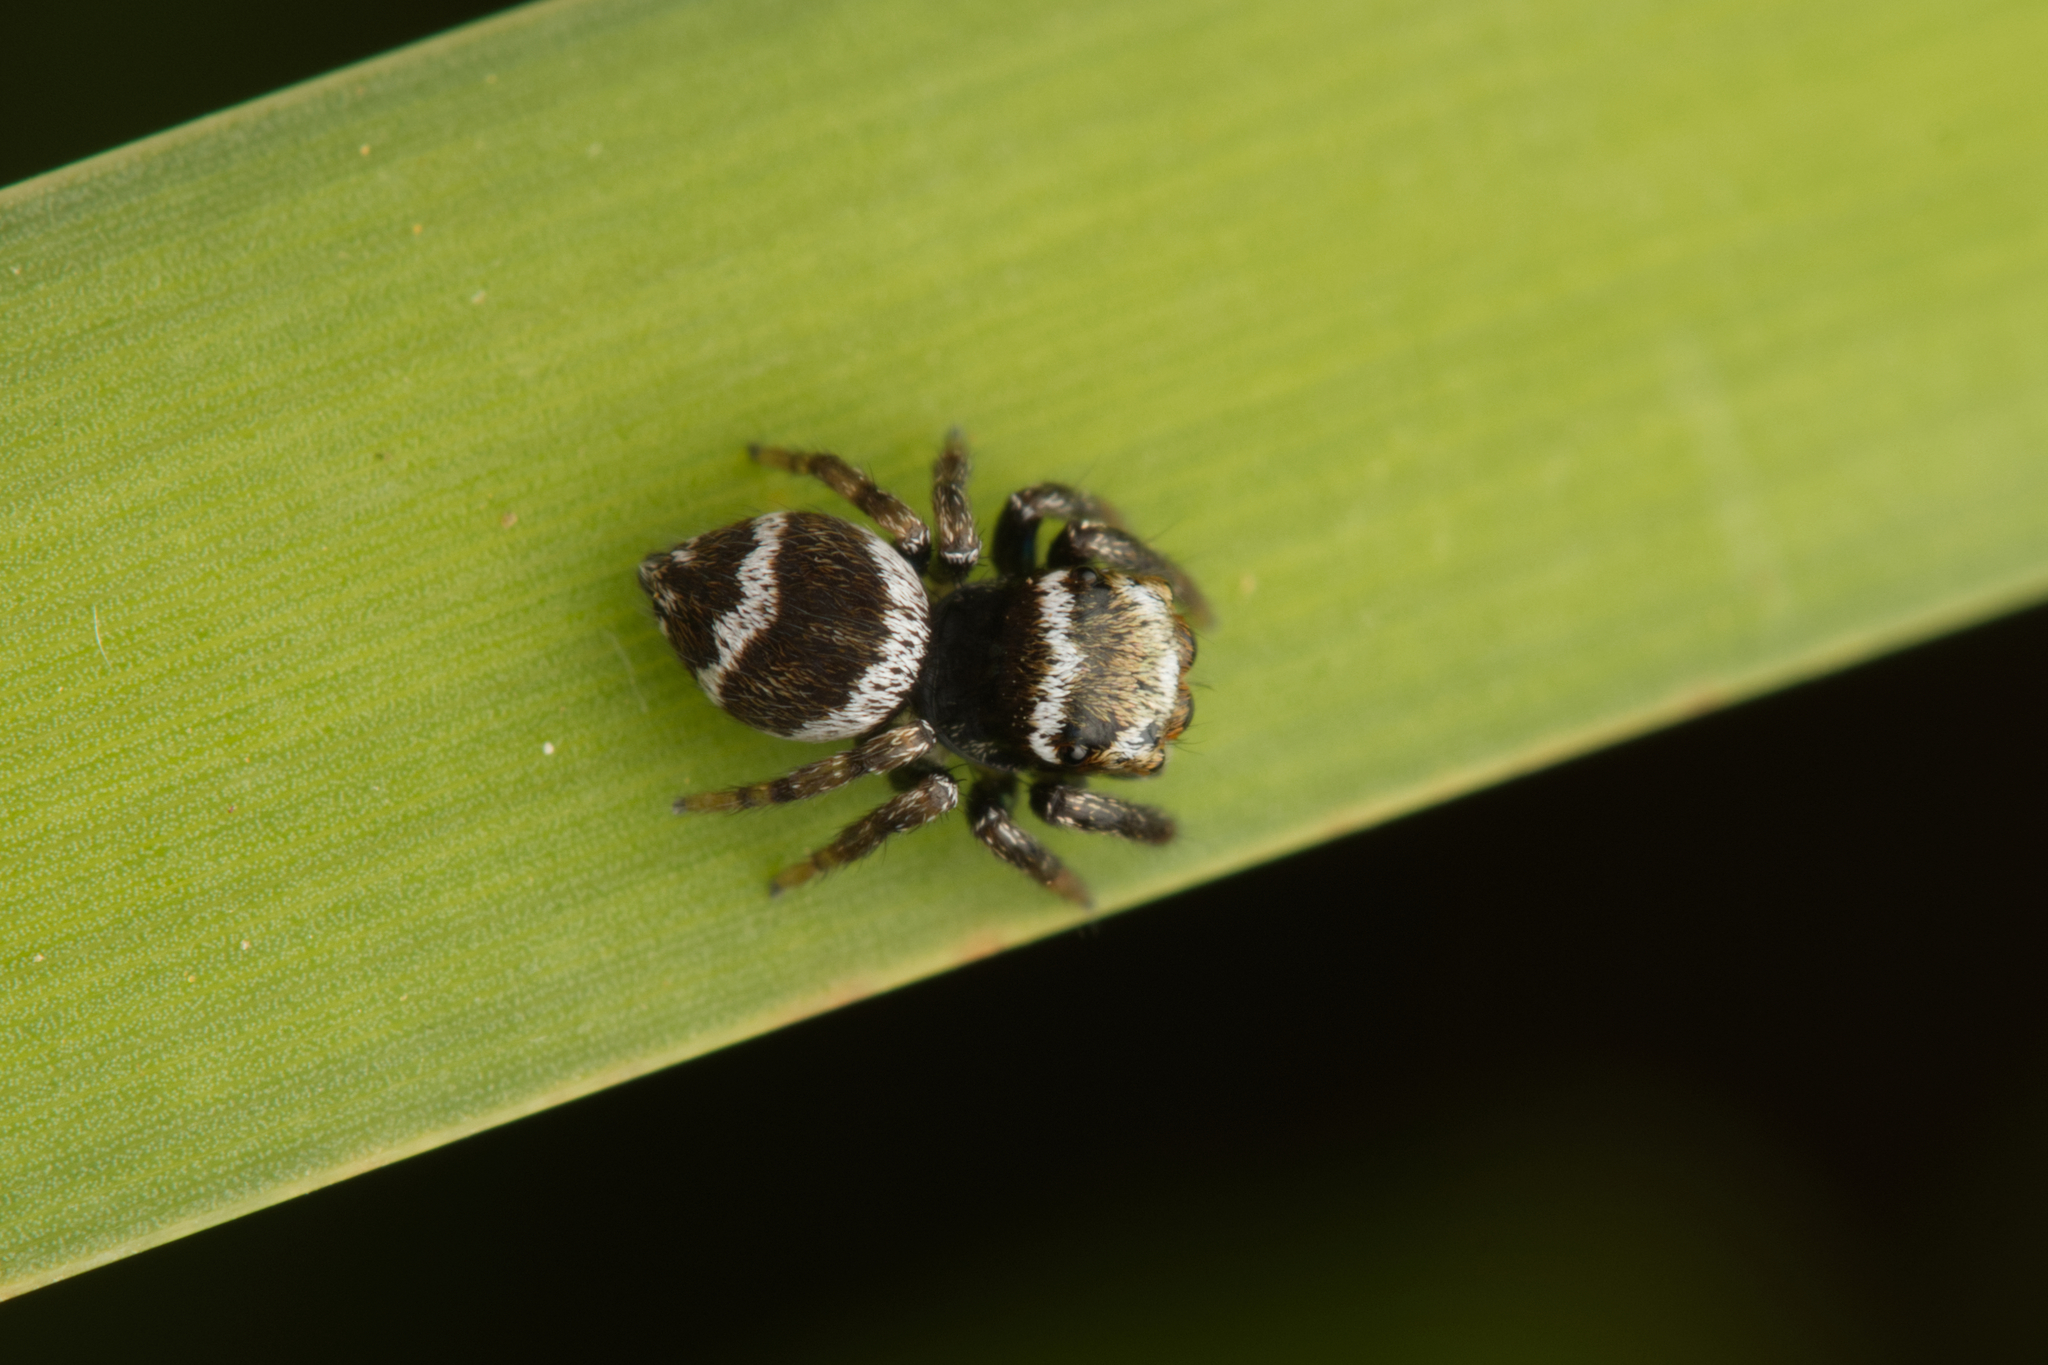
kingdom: Animalia
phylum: Arthropoda
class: Arachnida
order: Araneae
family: Salticidae
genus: Euryattus
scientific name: Euryattus bleekeri
